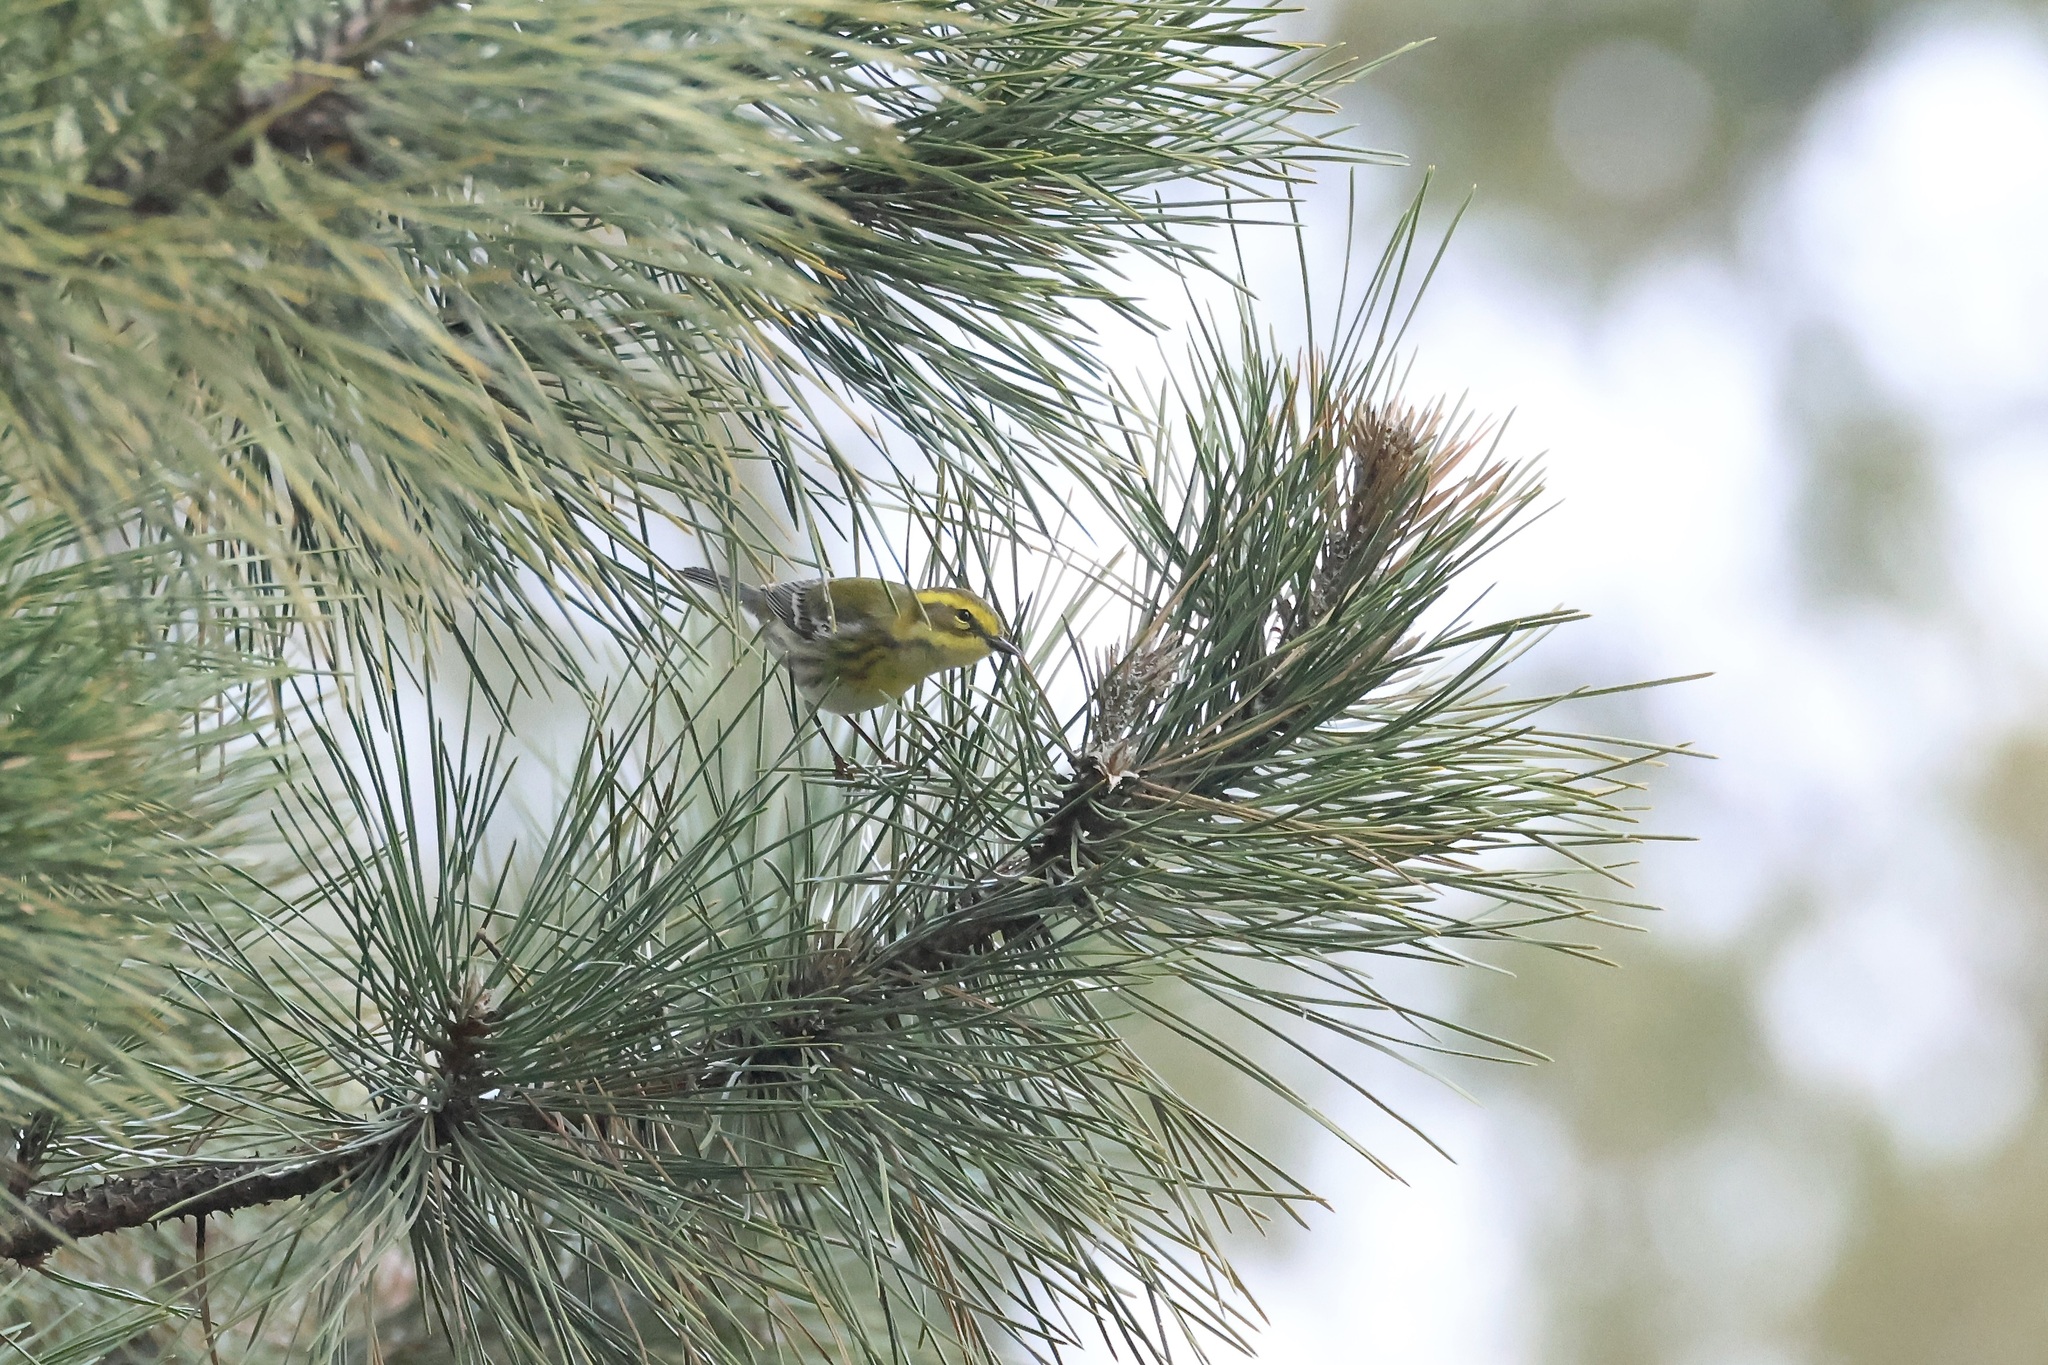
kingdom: Animalia
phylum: Chordata
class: Aves
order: Passeriformes
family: Parulidae
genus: Setophaga
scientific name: Setophaga townsendi
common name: Townsend's warbler
